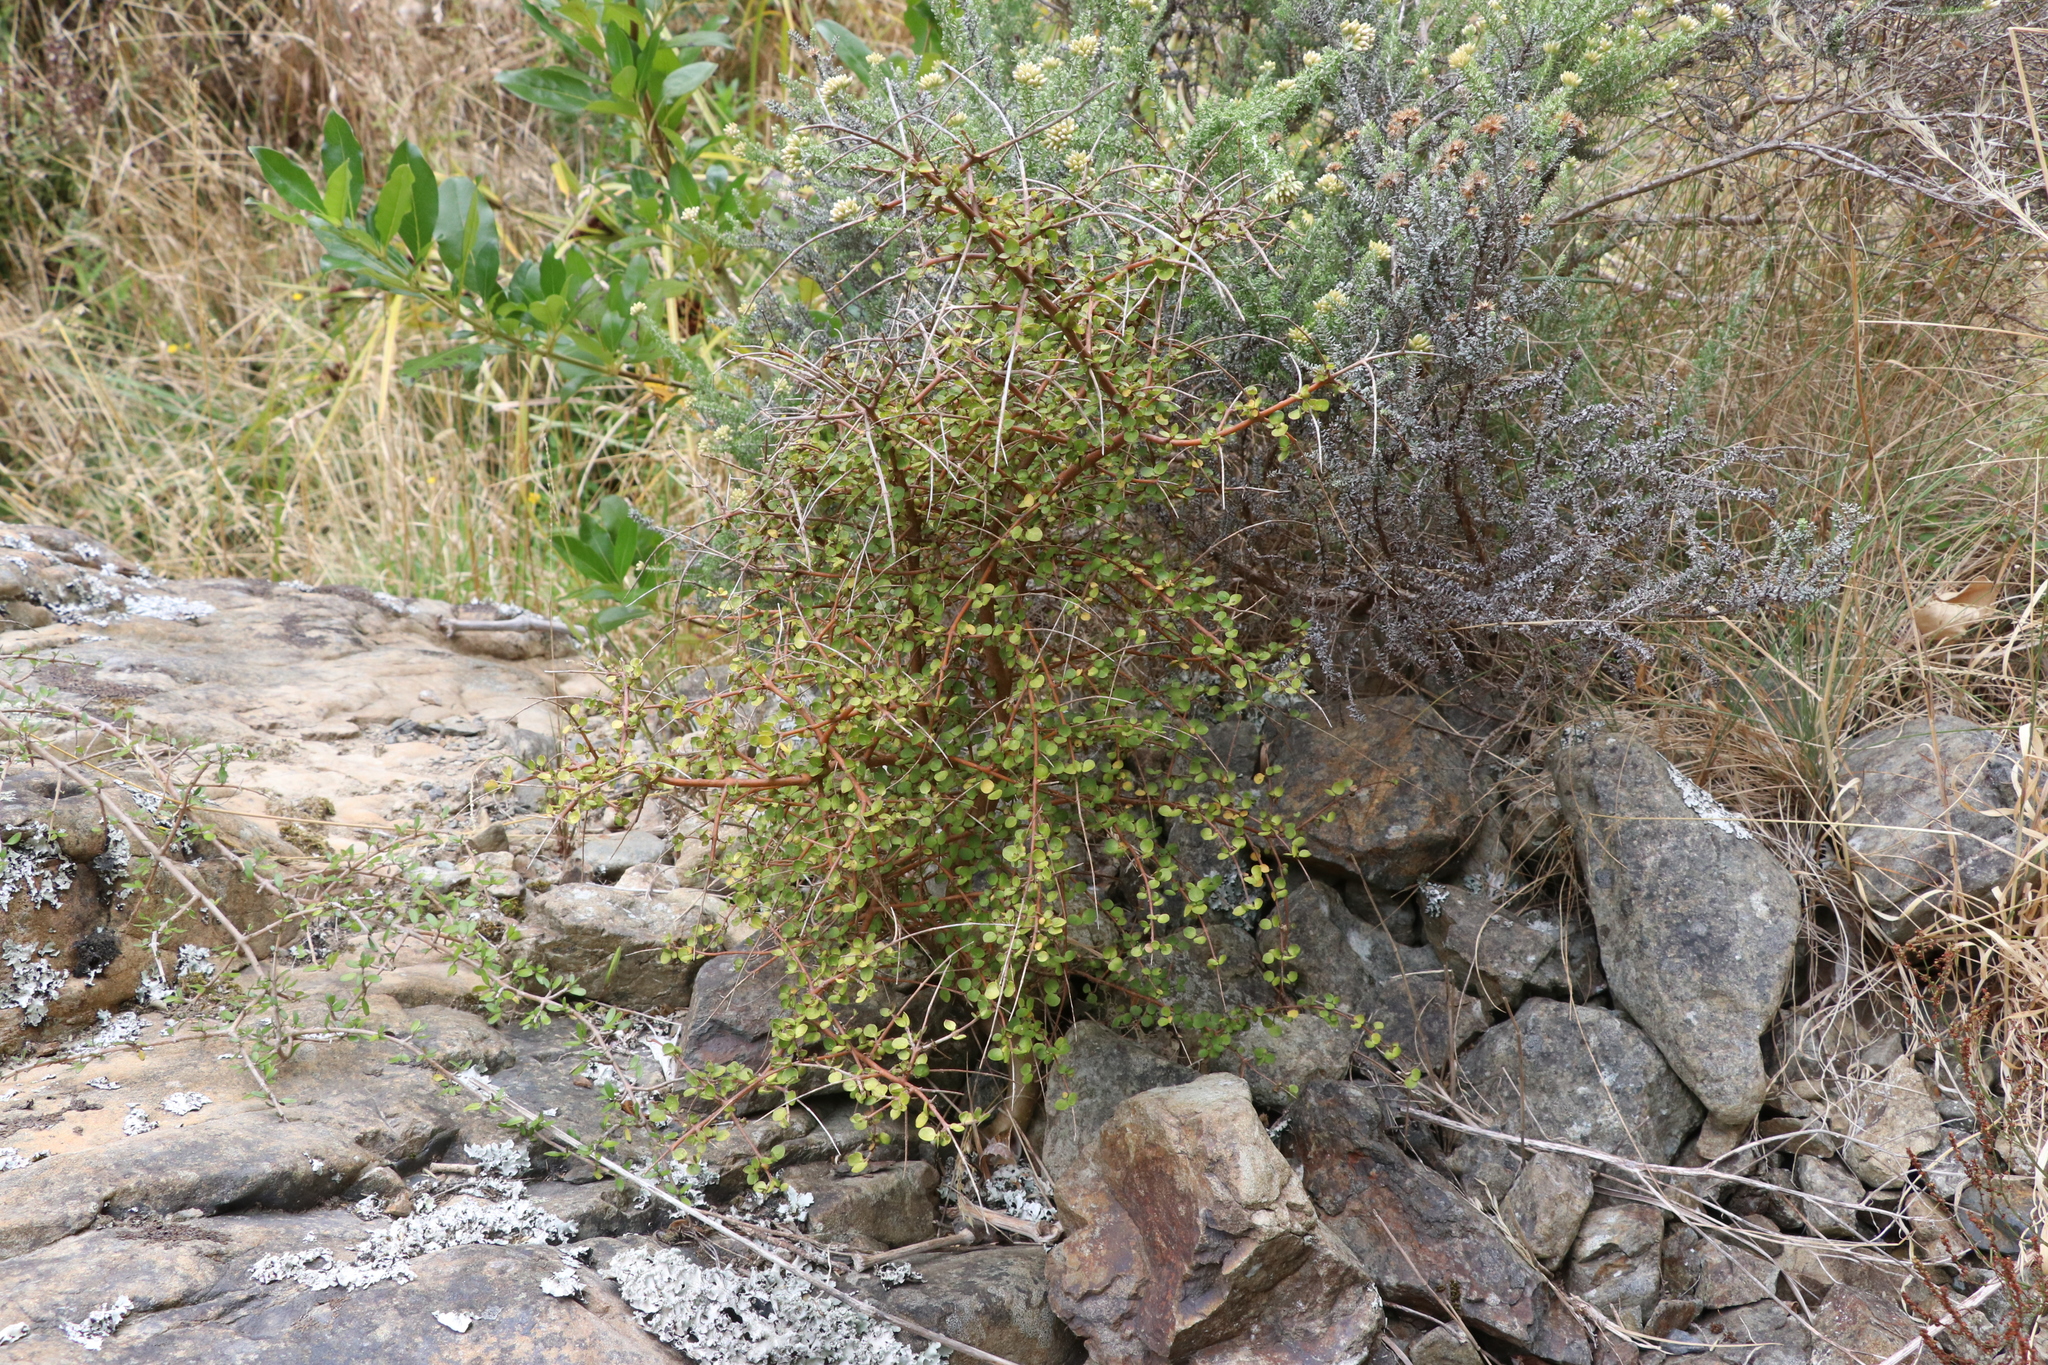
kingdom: Plantae
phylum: Tracheophyta
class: Magnoliopsida
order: Gentianales
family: Rubiaceae
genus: Coprosma
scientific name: Coprosma rhamnoides
